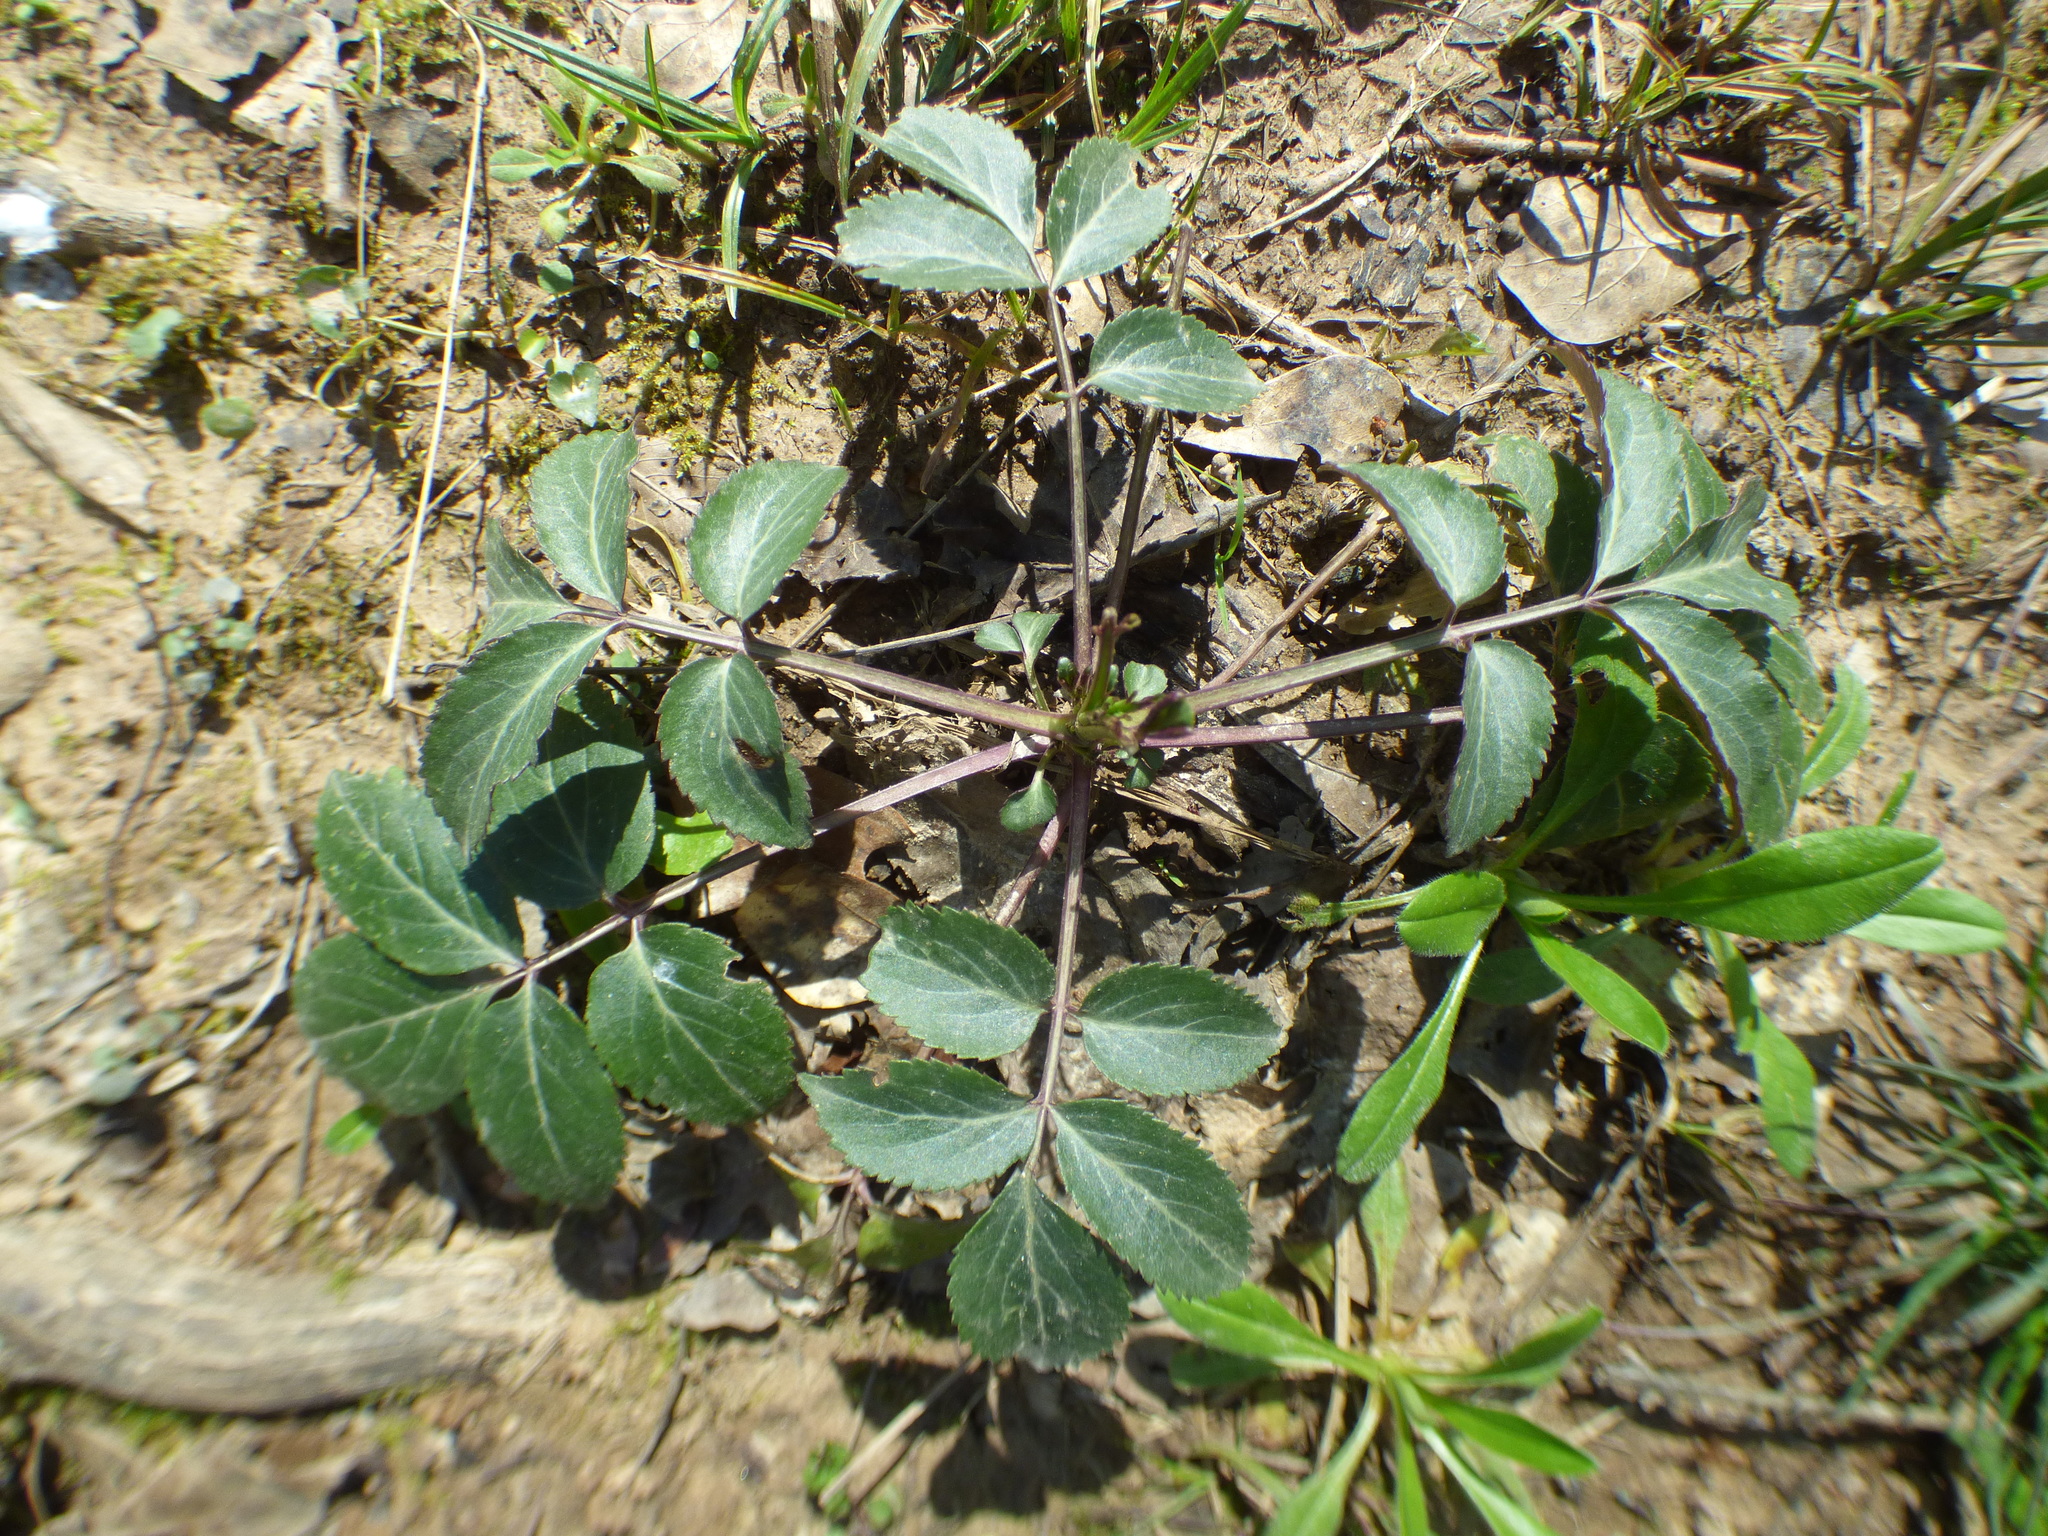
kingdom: Plantae
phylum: Tracheophyta
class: Magnoliopsida
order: Dipsacales
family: Viburnaceae
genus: Sambucus
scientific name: Sambucus canadensis
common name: American elder
